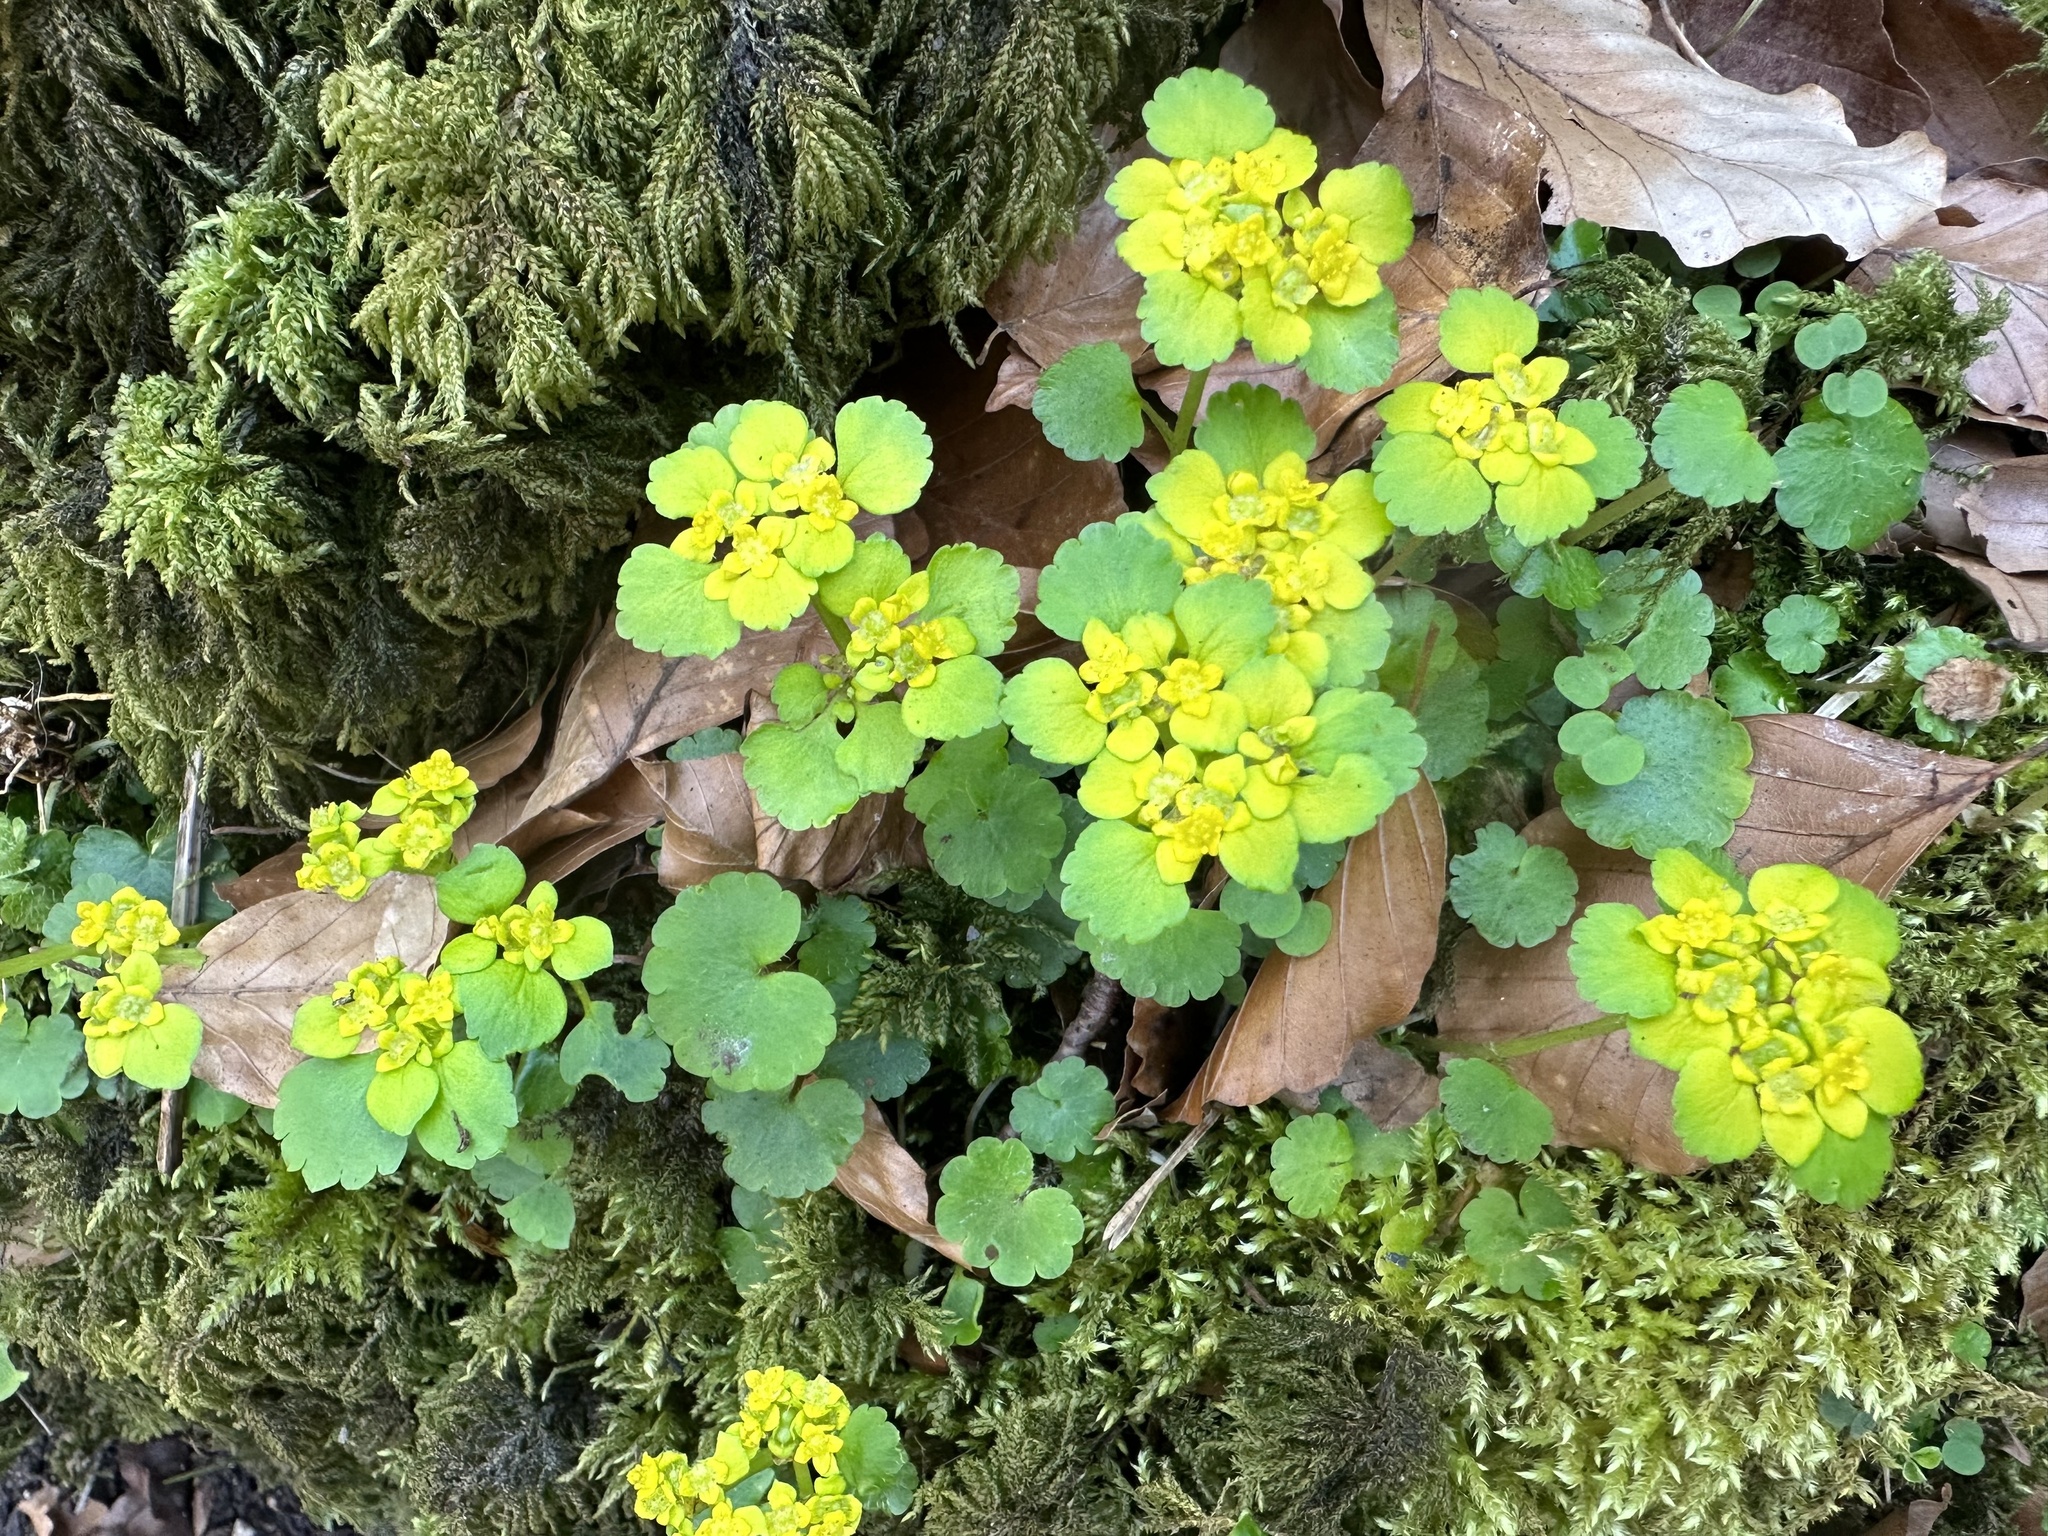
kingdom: Plantae
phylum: Tracheophyta
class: Magnoliopsida
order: Saxifragales
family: Saxifragaceae
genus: Chrysosplenium
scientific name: Chrysosplenium alternifolium
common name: Alternate-leaved golden-saxifrage
